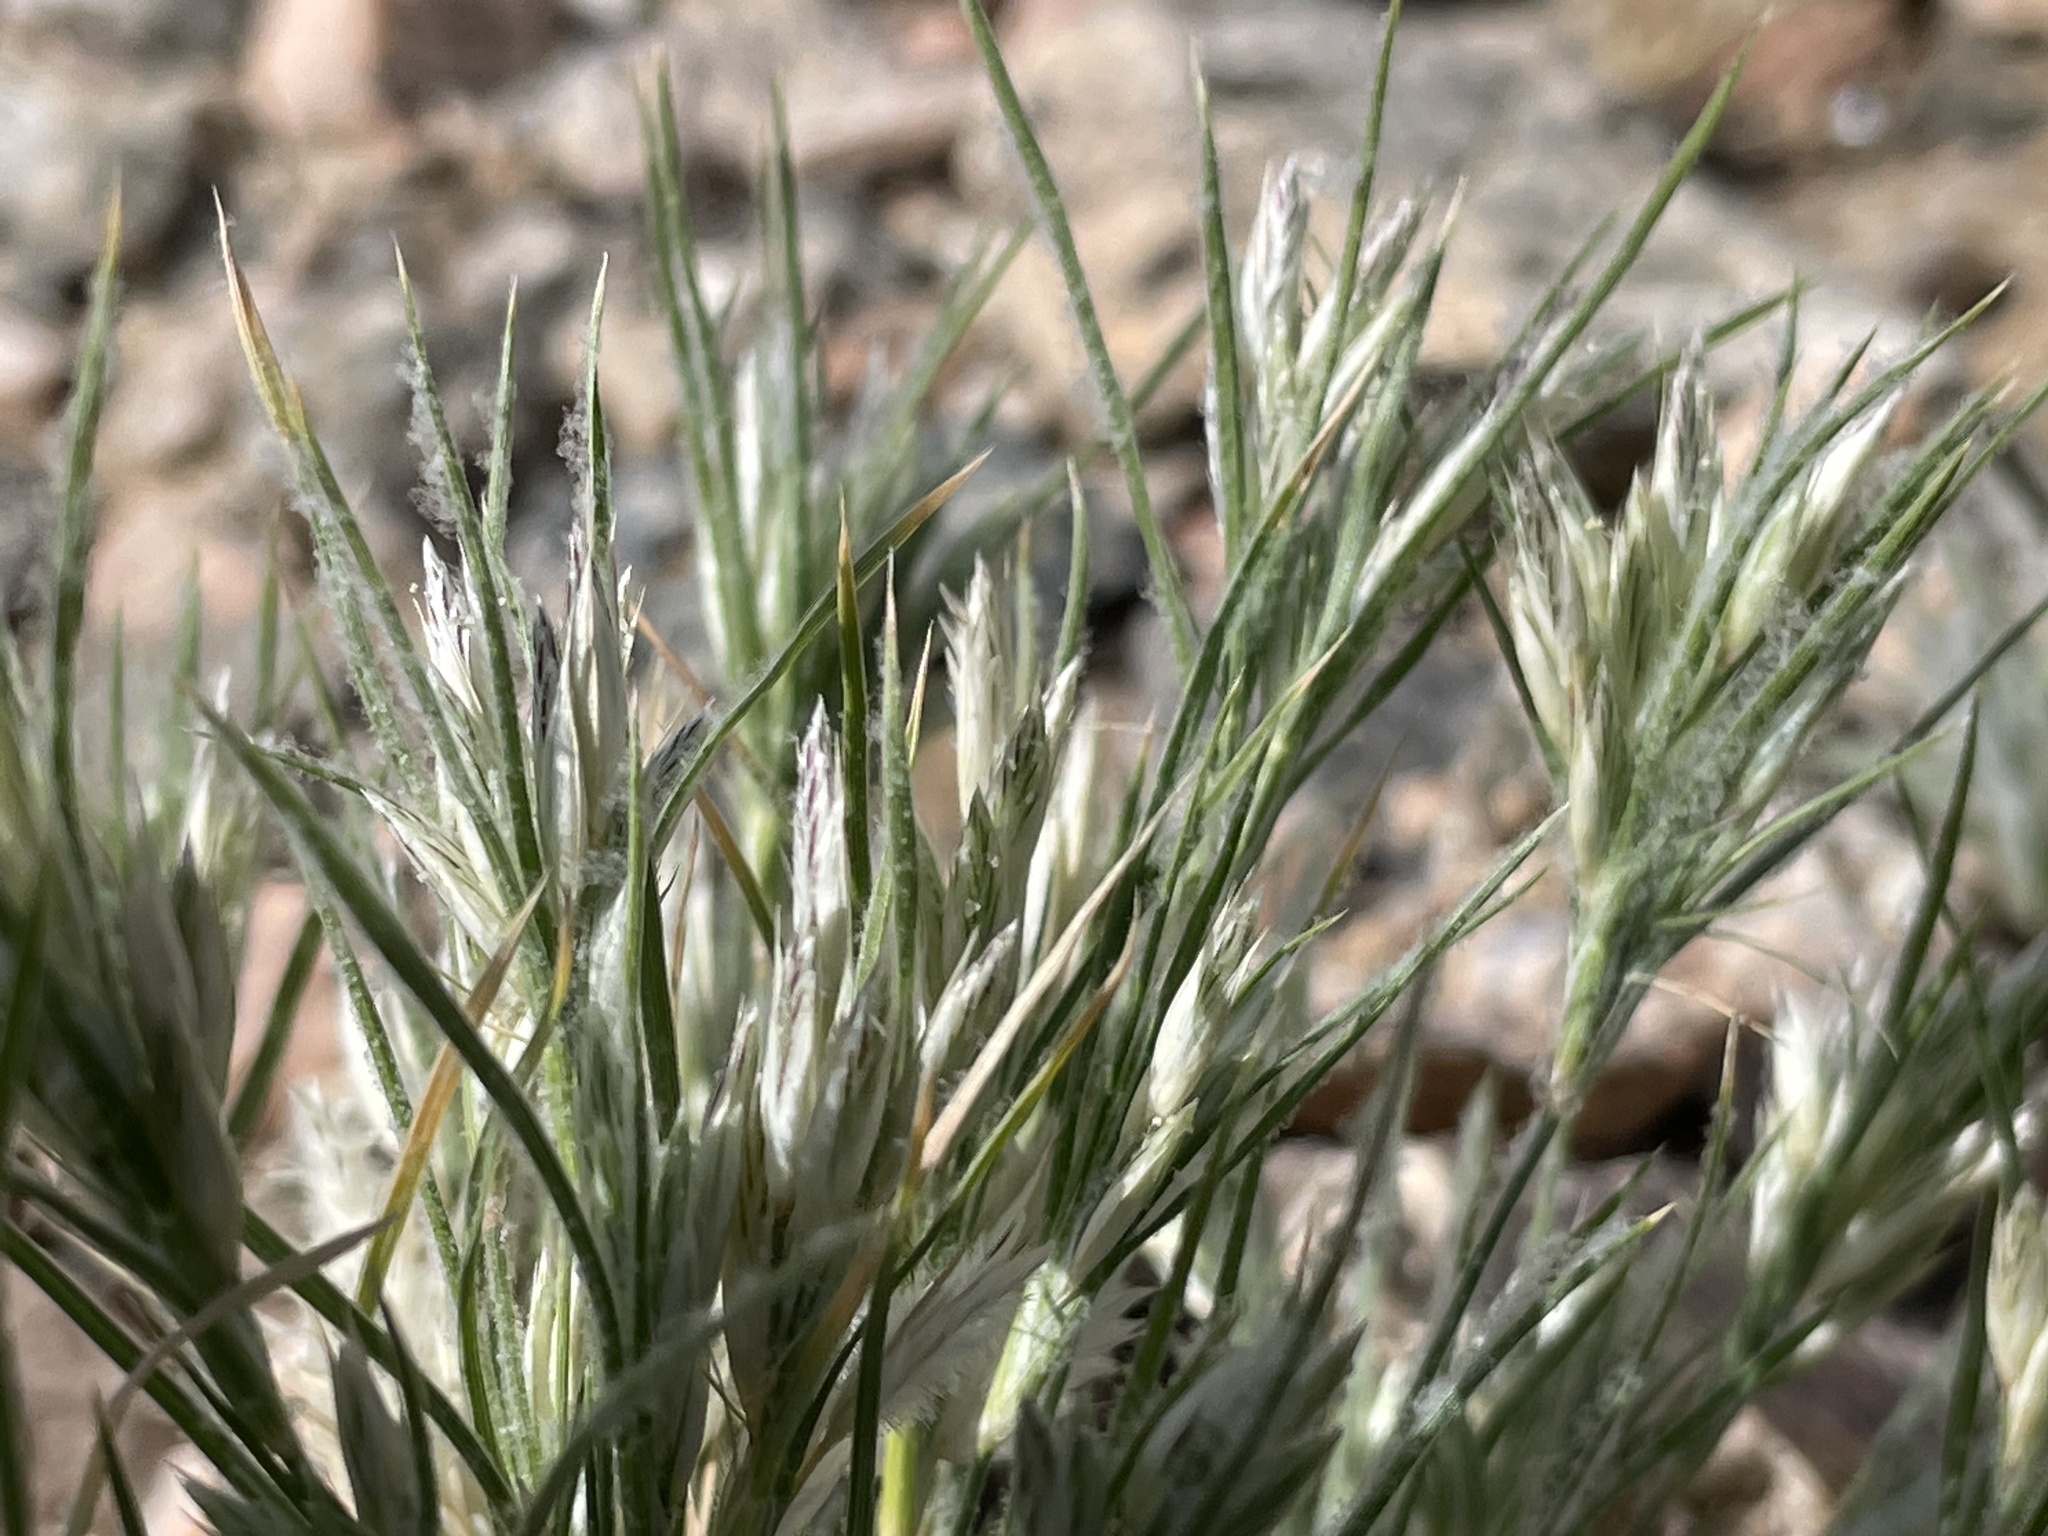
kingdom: Plantae
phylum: Tracheophyta
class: Liliopsida
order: Poales
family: Poaceae
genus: Dasyochloa
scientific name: Dasyochloa pulchella
